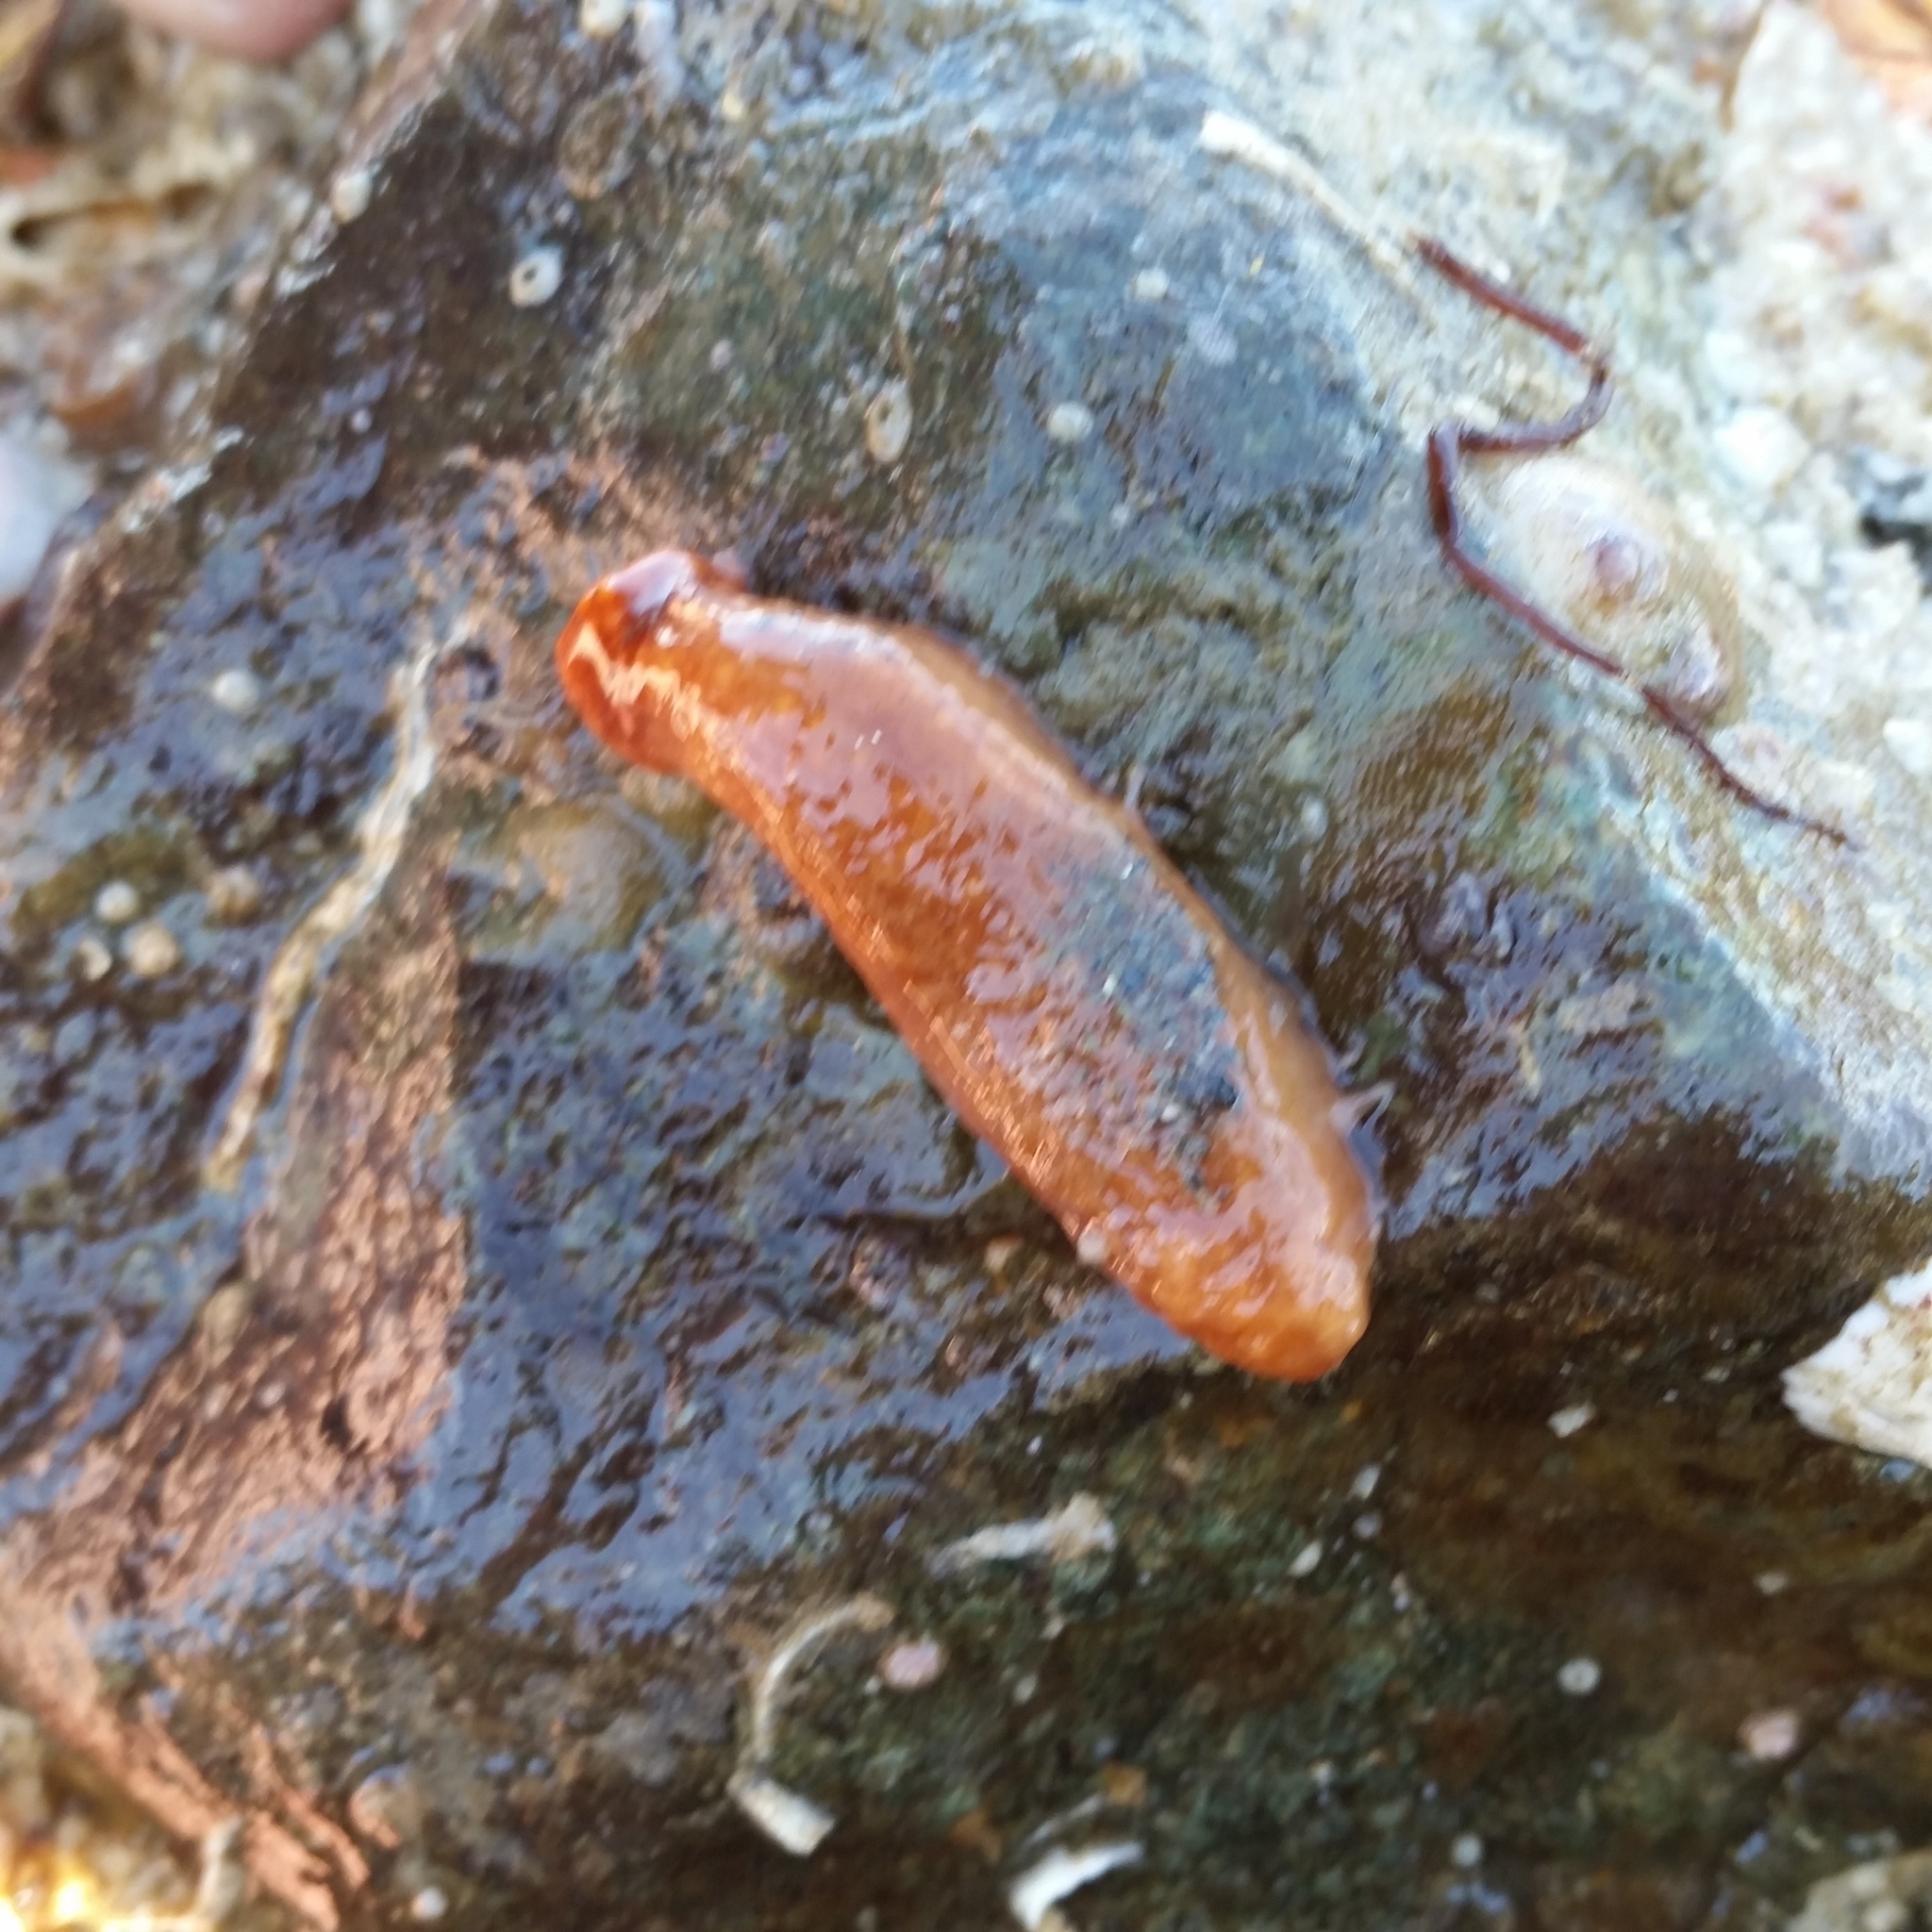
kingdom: Animalia
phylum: Echinodermata
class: Holothuroidea
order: Dendrochirotida
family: Cucumariidae
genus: Cucumaria
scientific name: Cucumaria miniata
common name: Orange sea cucumber
